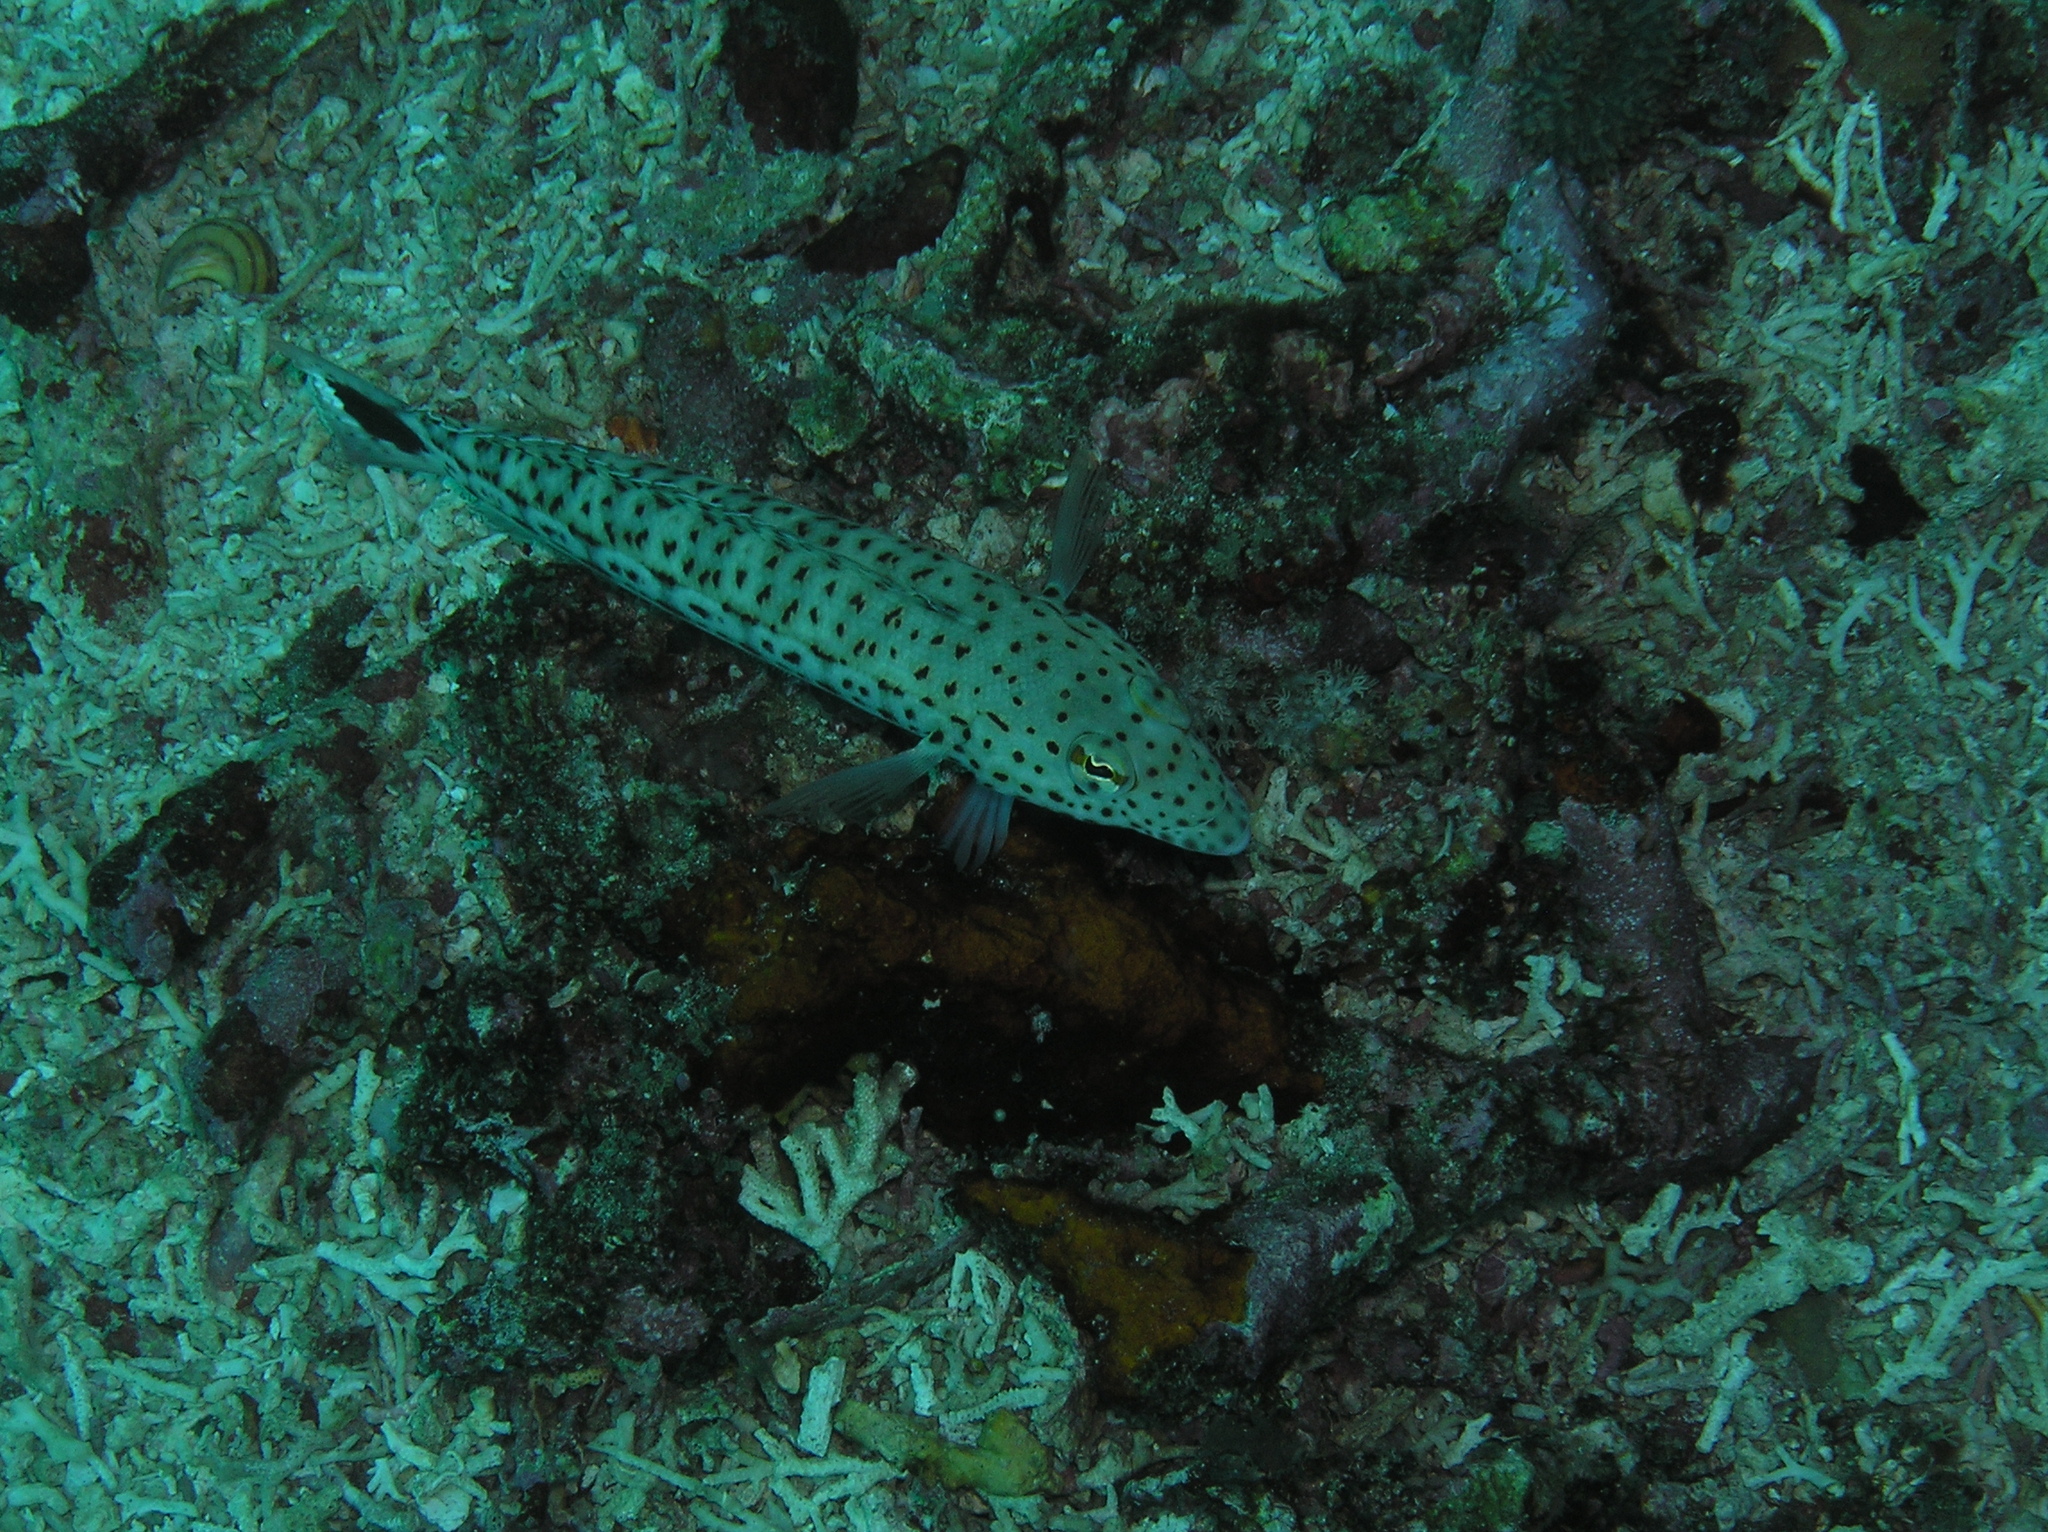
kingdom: Animalia
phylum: Chordata
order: Perciformes
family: Pinguipedidae
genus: Parapercis
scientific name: Parapercis hexophtalma
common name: Speckled sandperch
